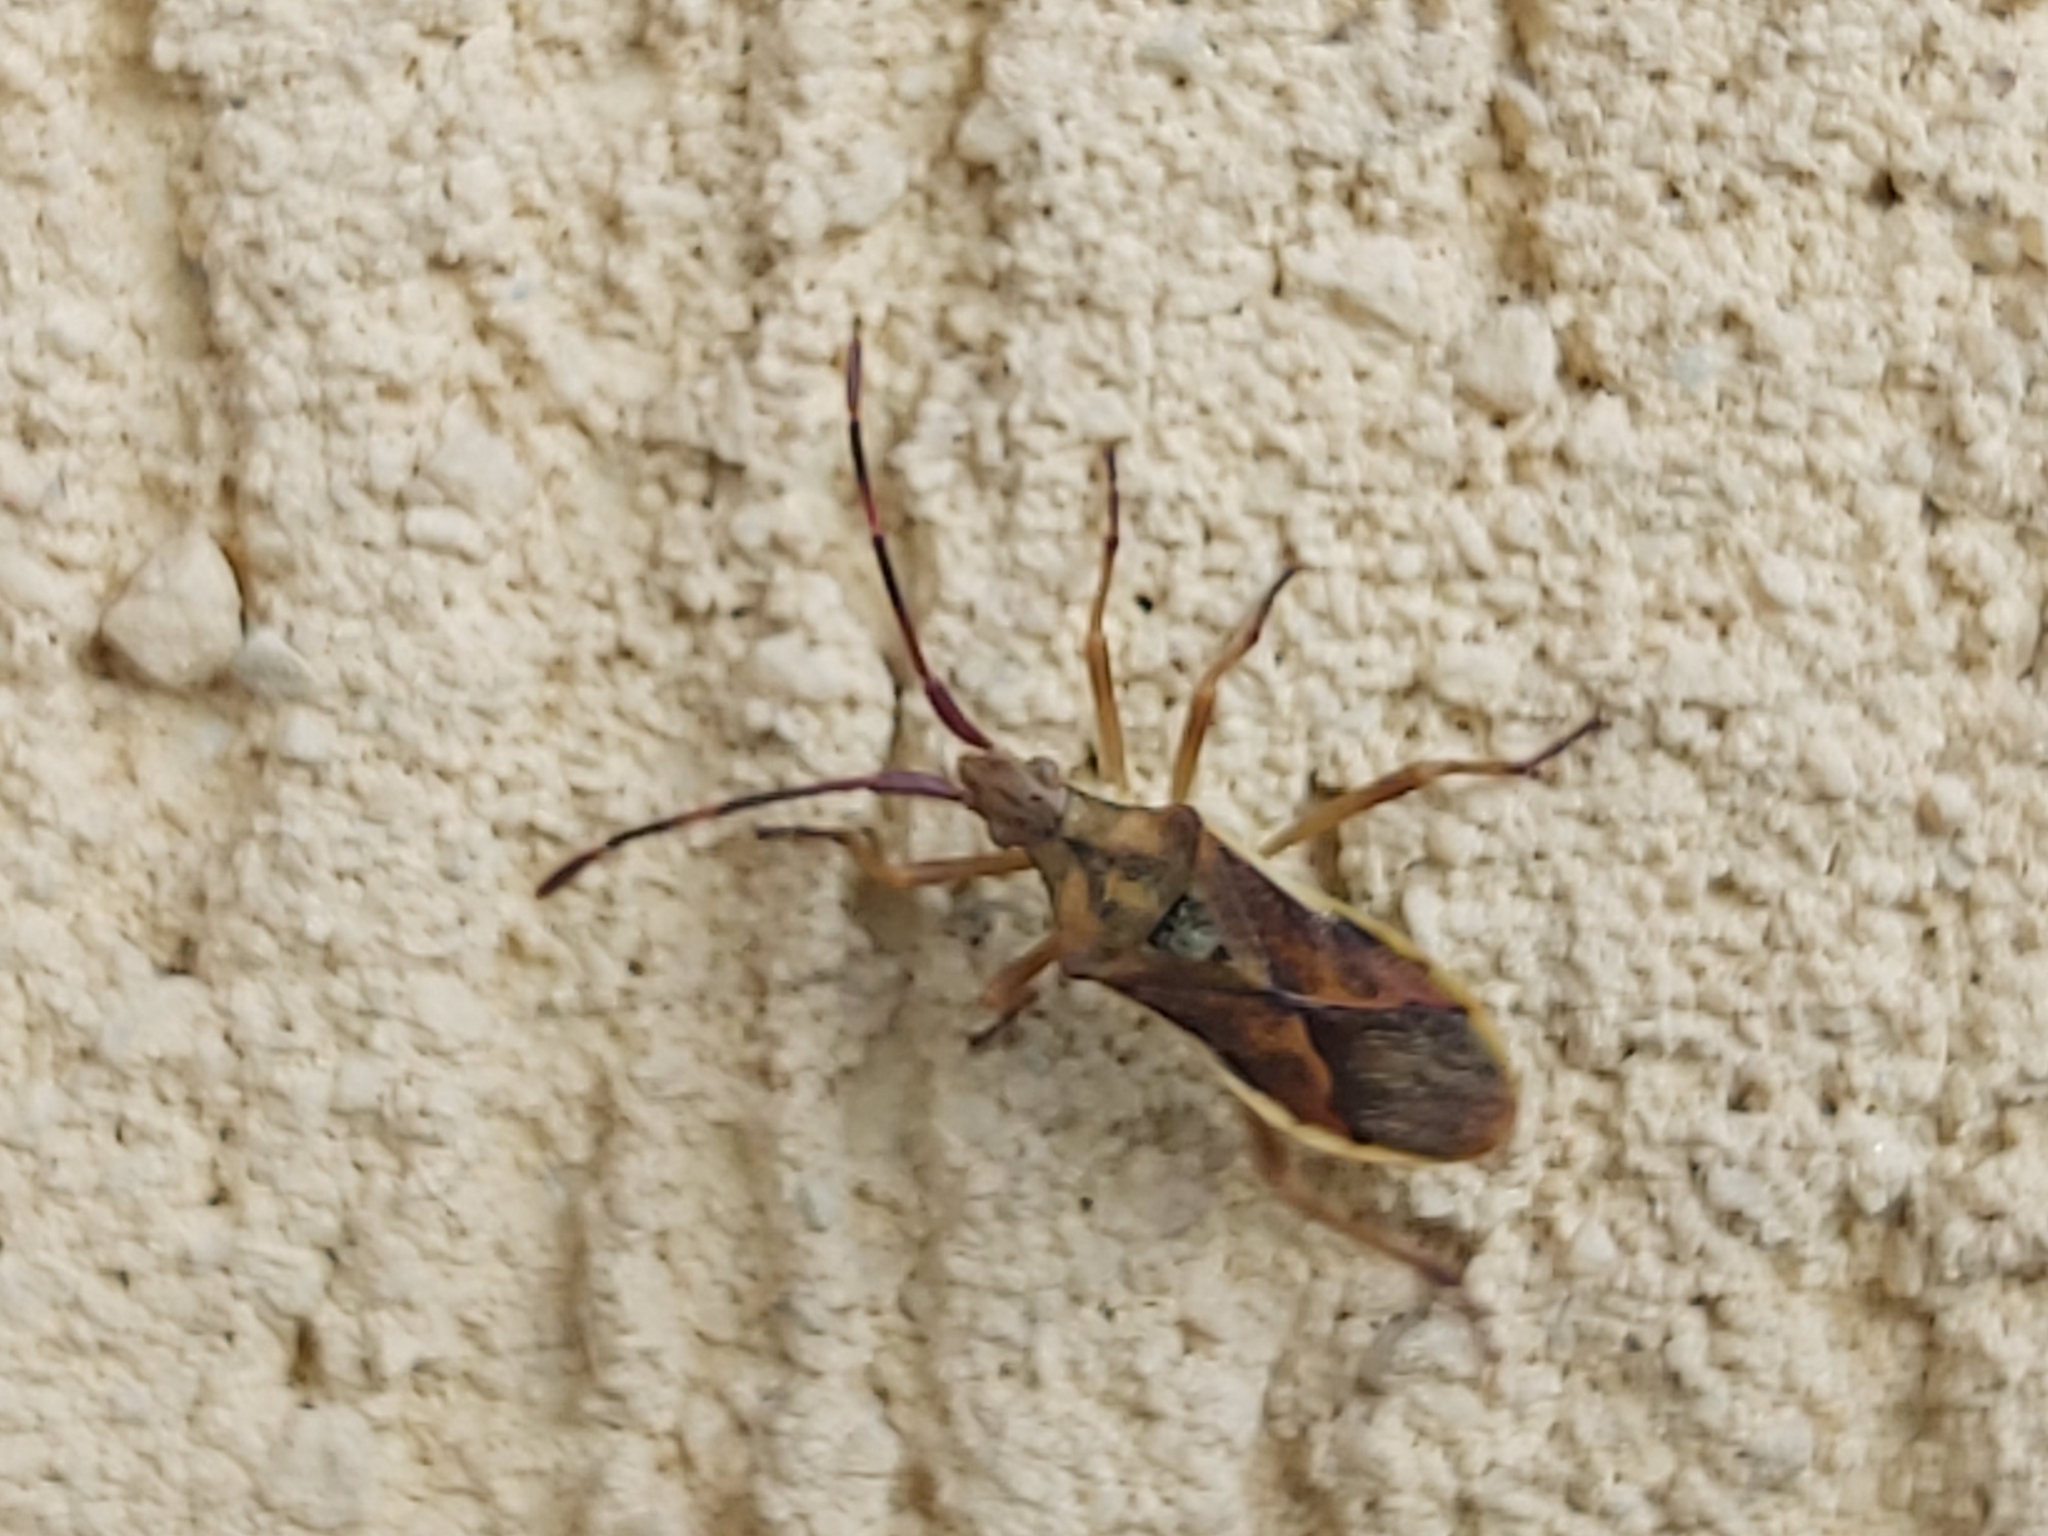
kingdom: Animalia
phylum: Arthropoda
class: Insecta
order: Hemiptera
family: Coreidae
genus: Gonocerus
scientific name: Gonocerus juniperi
